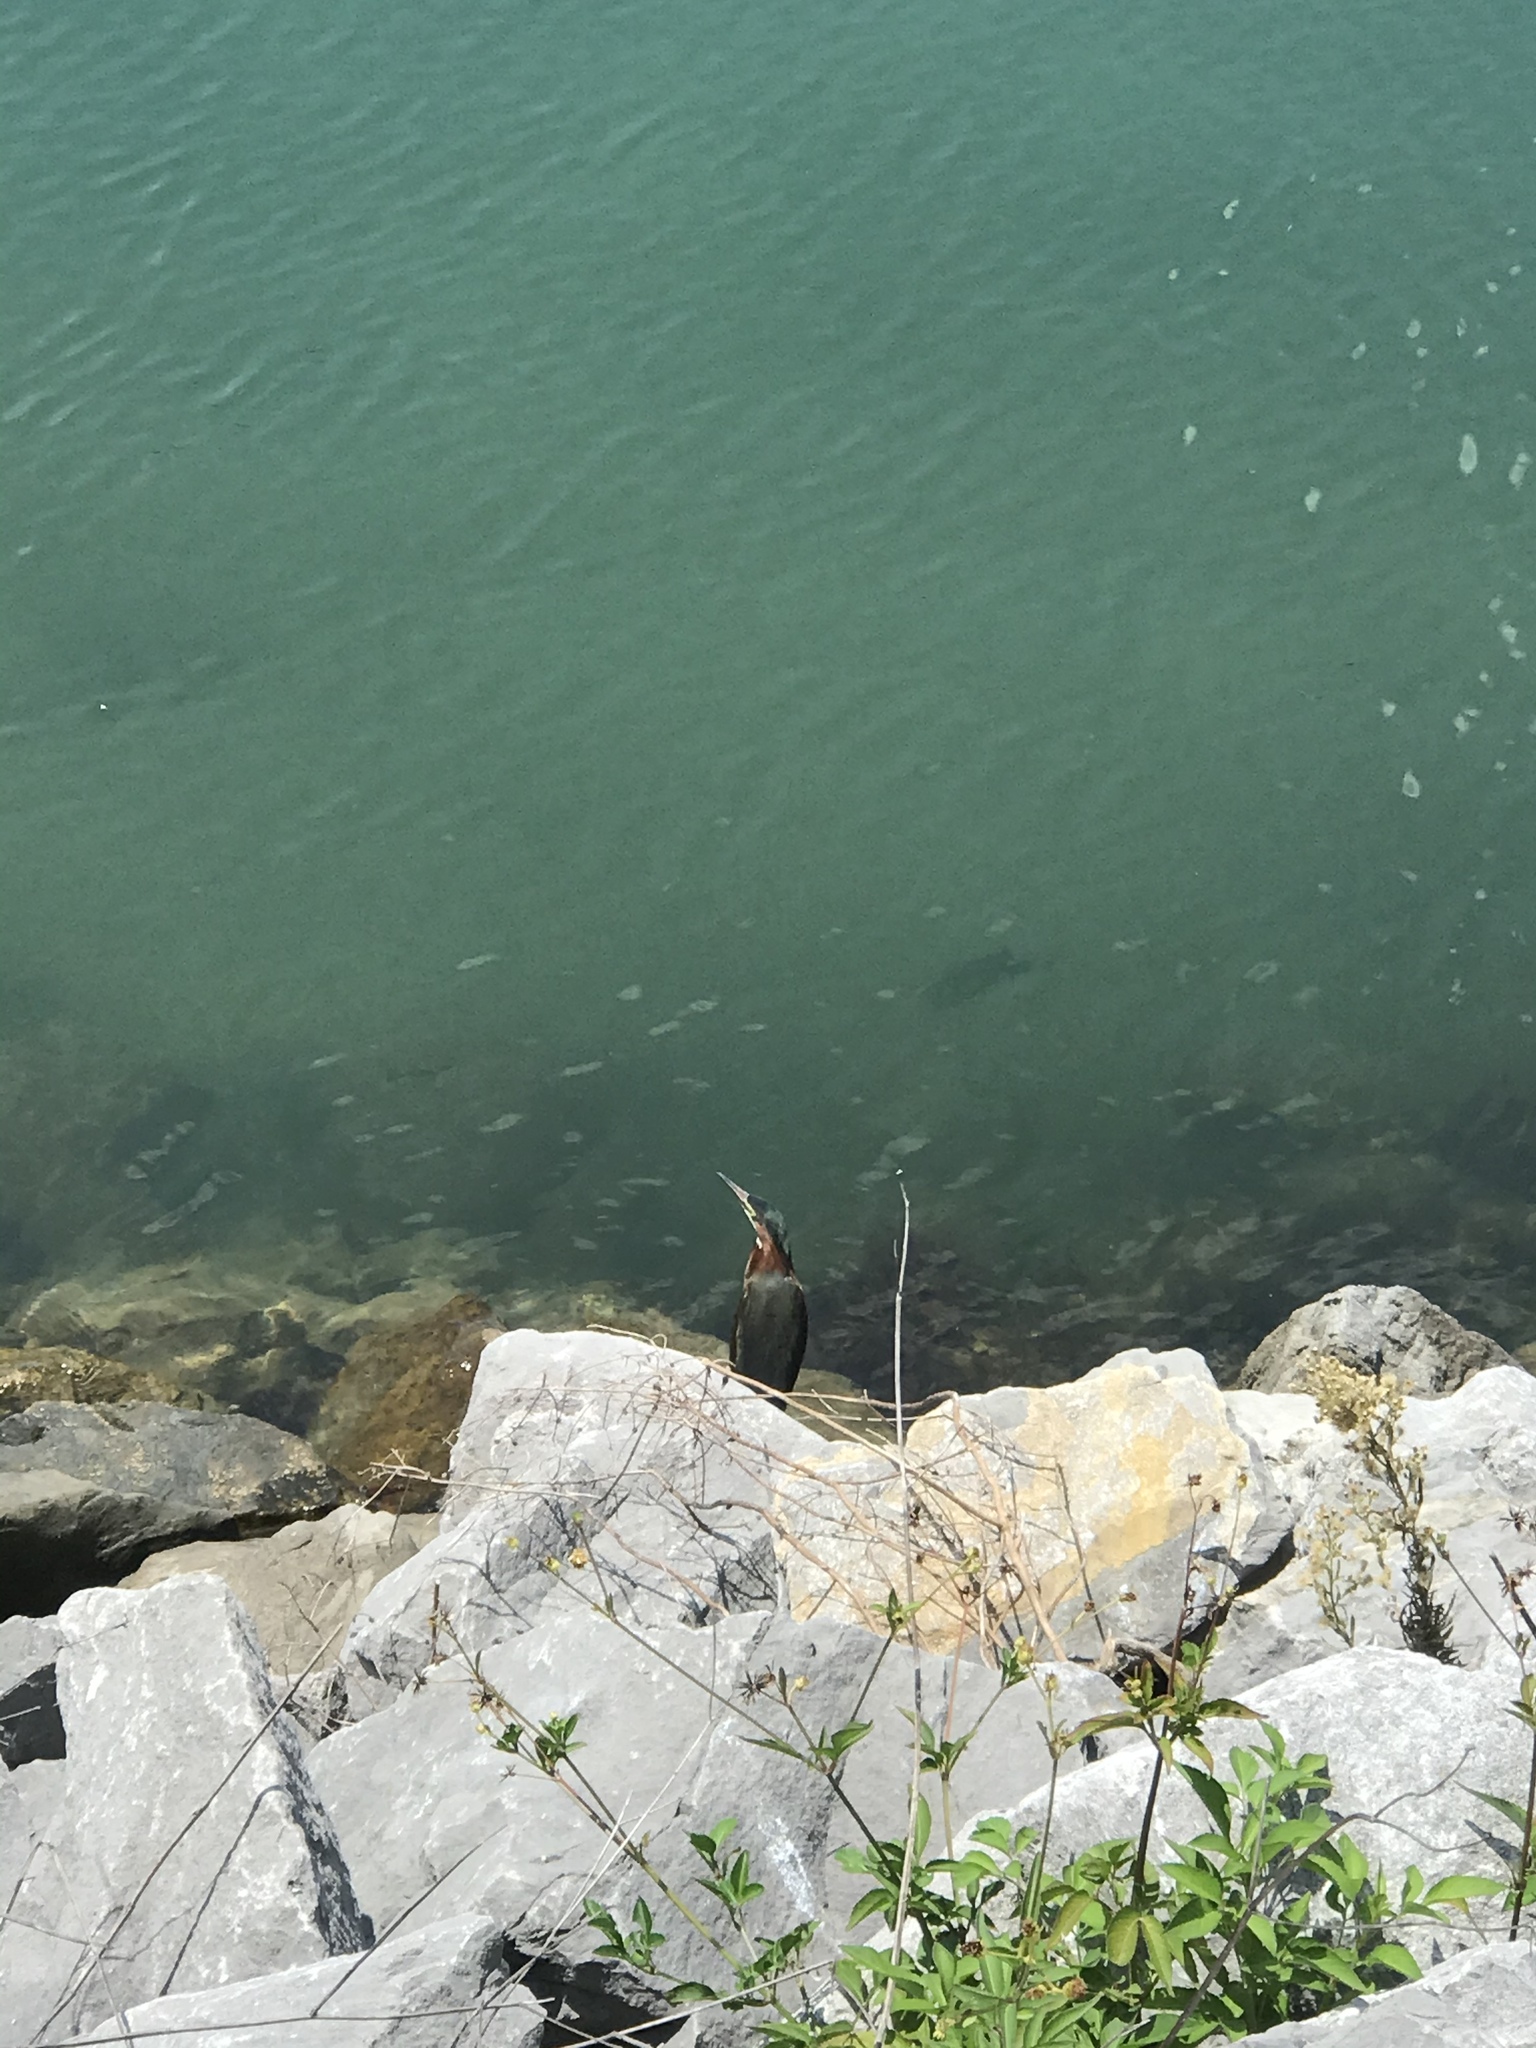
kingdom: Animalia
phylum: Chordata
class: Aves
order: Pelecaniformes
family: Ardeidae
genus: Butorides
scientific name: Butorides virescens
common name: Green heron
